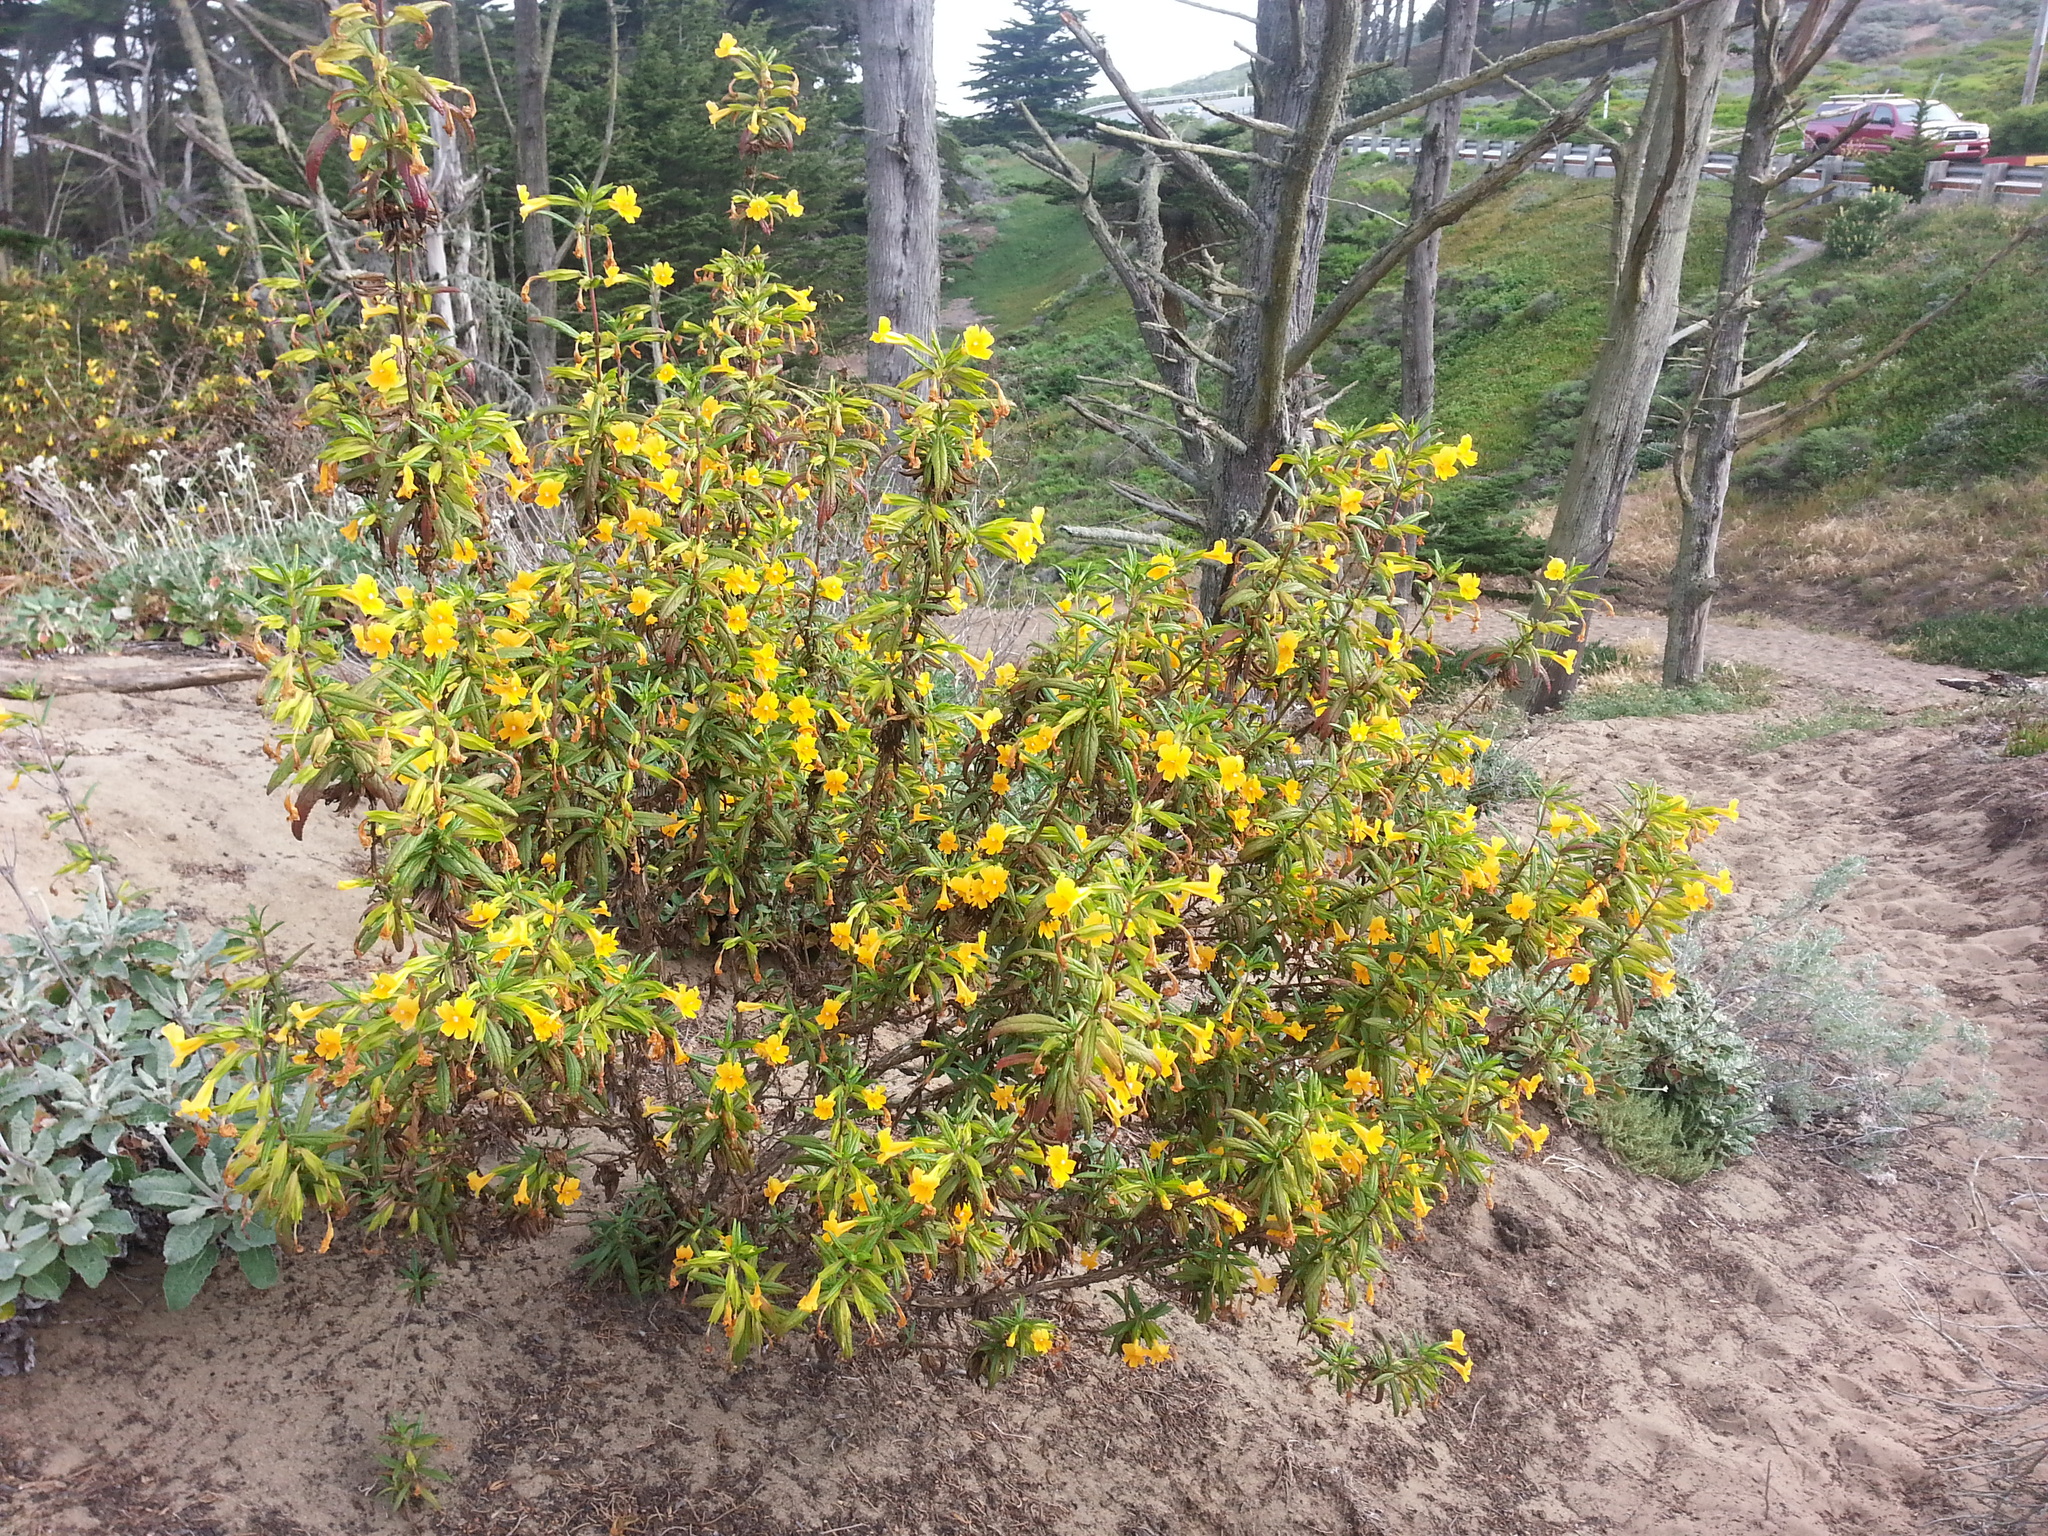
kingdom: Plantae
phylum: Tracheophyta
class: Magnoliopsida
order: Lamiales
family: Phrymaceae
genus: Diplacus
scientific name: Diplacus aurantiacus
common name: Bush monkey-flower
